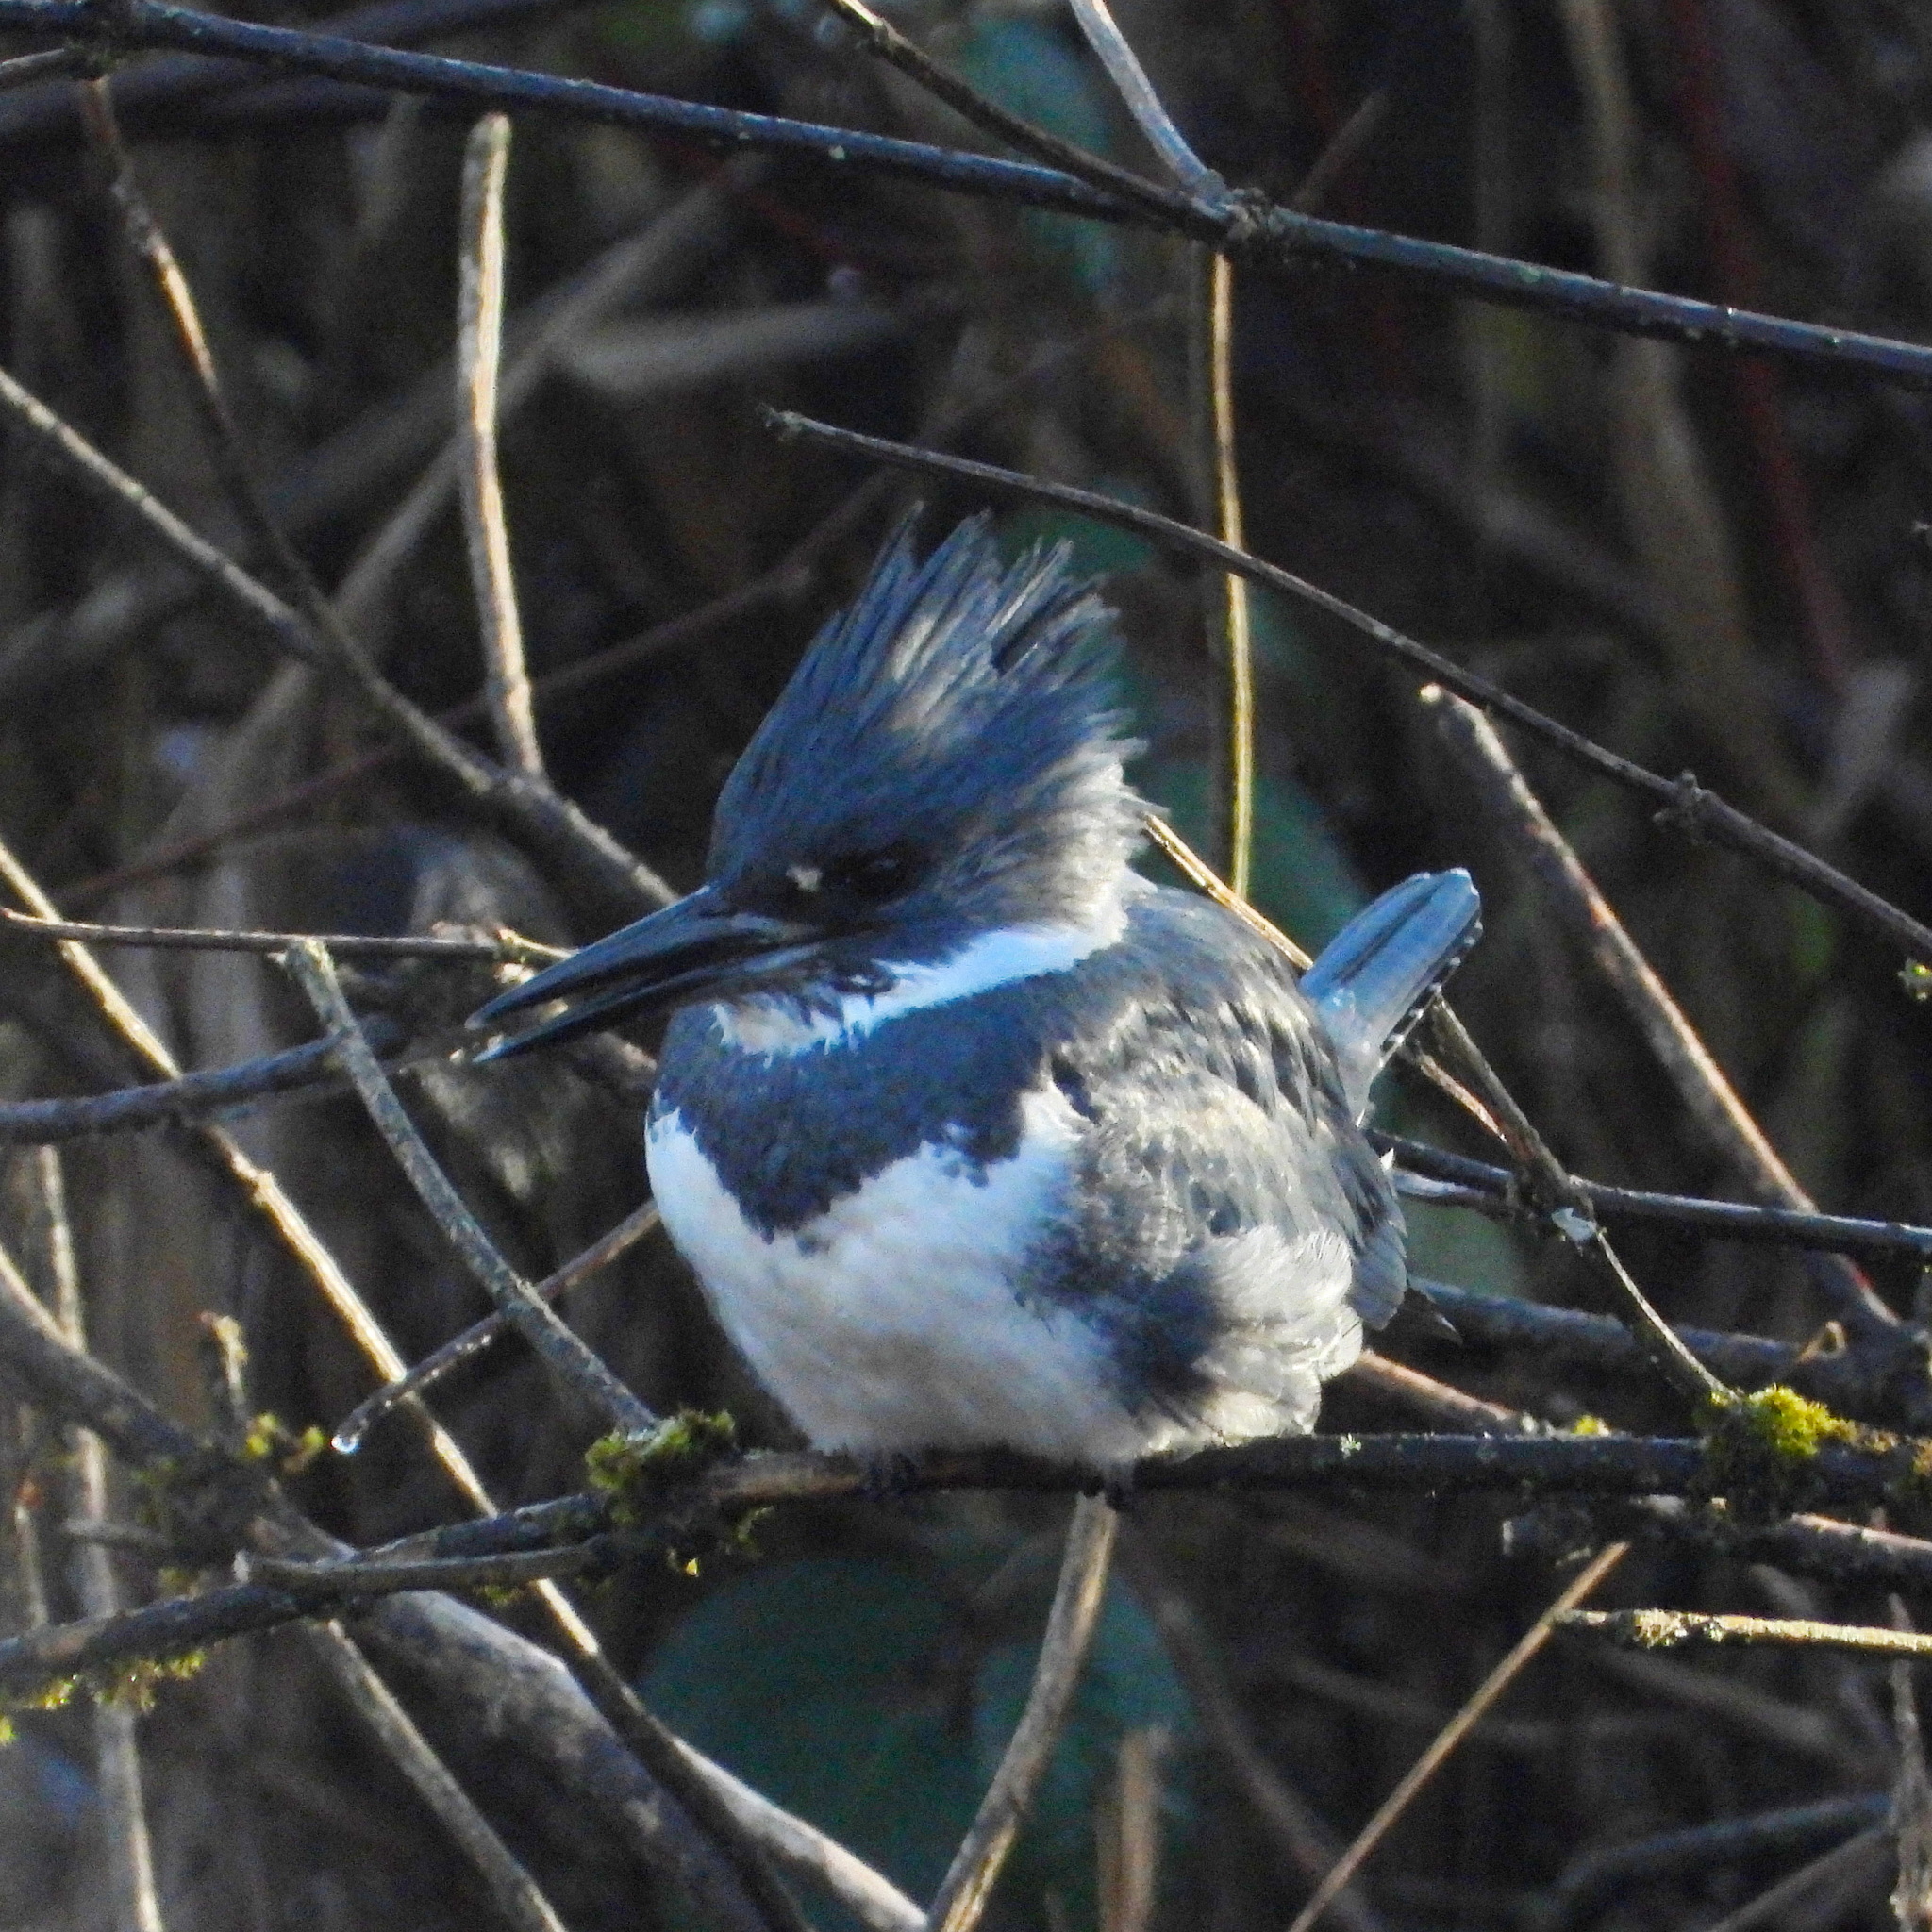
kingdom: Animalia
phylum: Chordata
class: Aves
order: Coraciiformes
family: Alcedinidae
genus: Megaceryle
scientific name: Megaceryle alcyon
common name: Belted kingfisher
